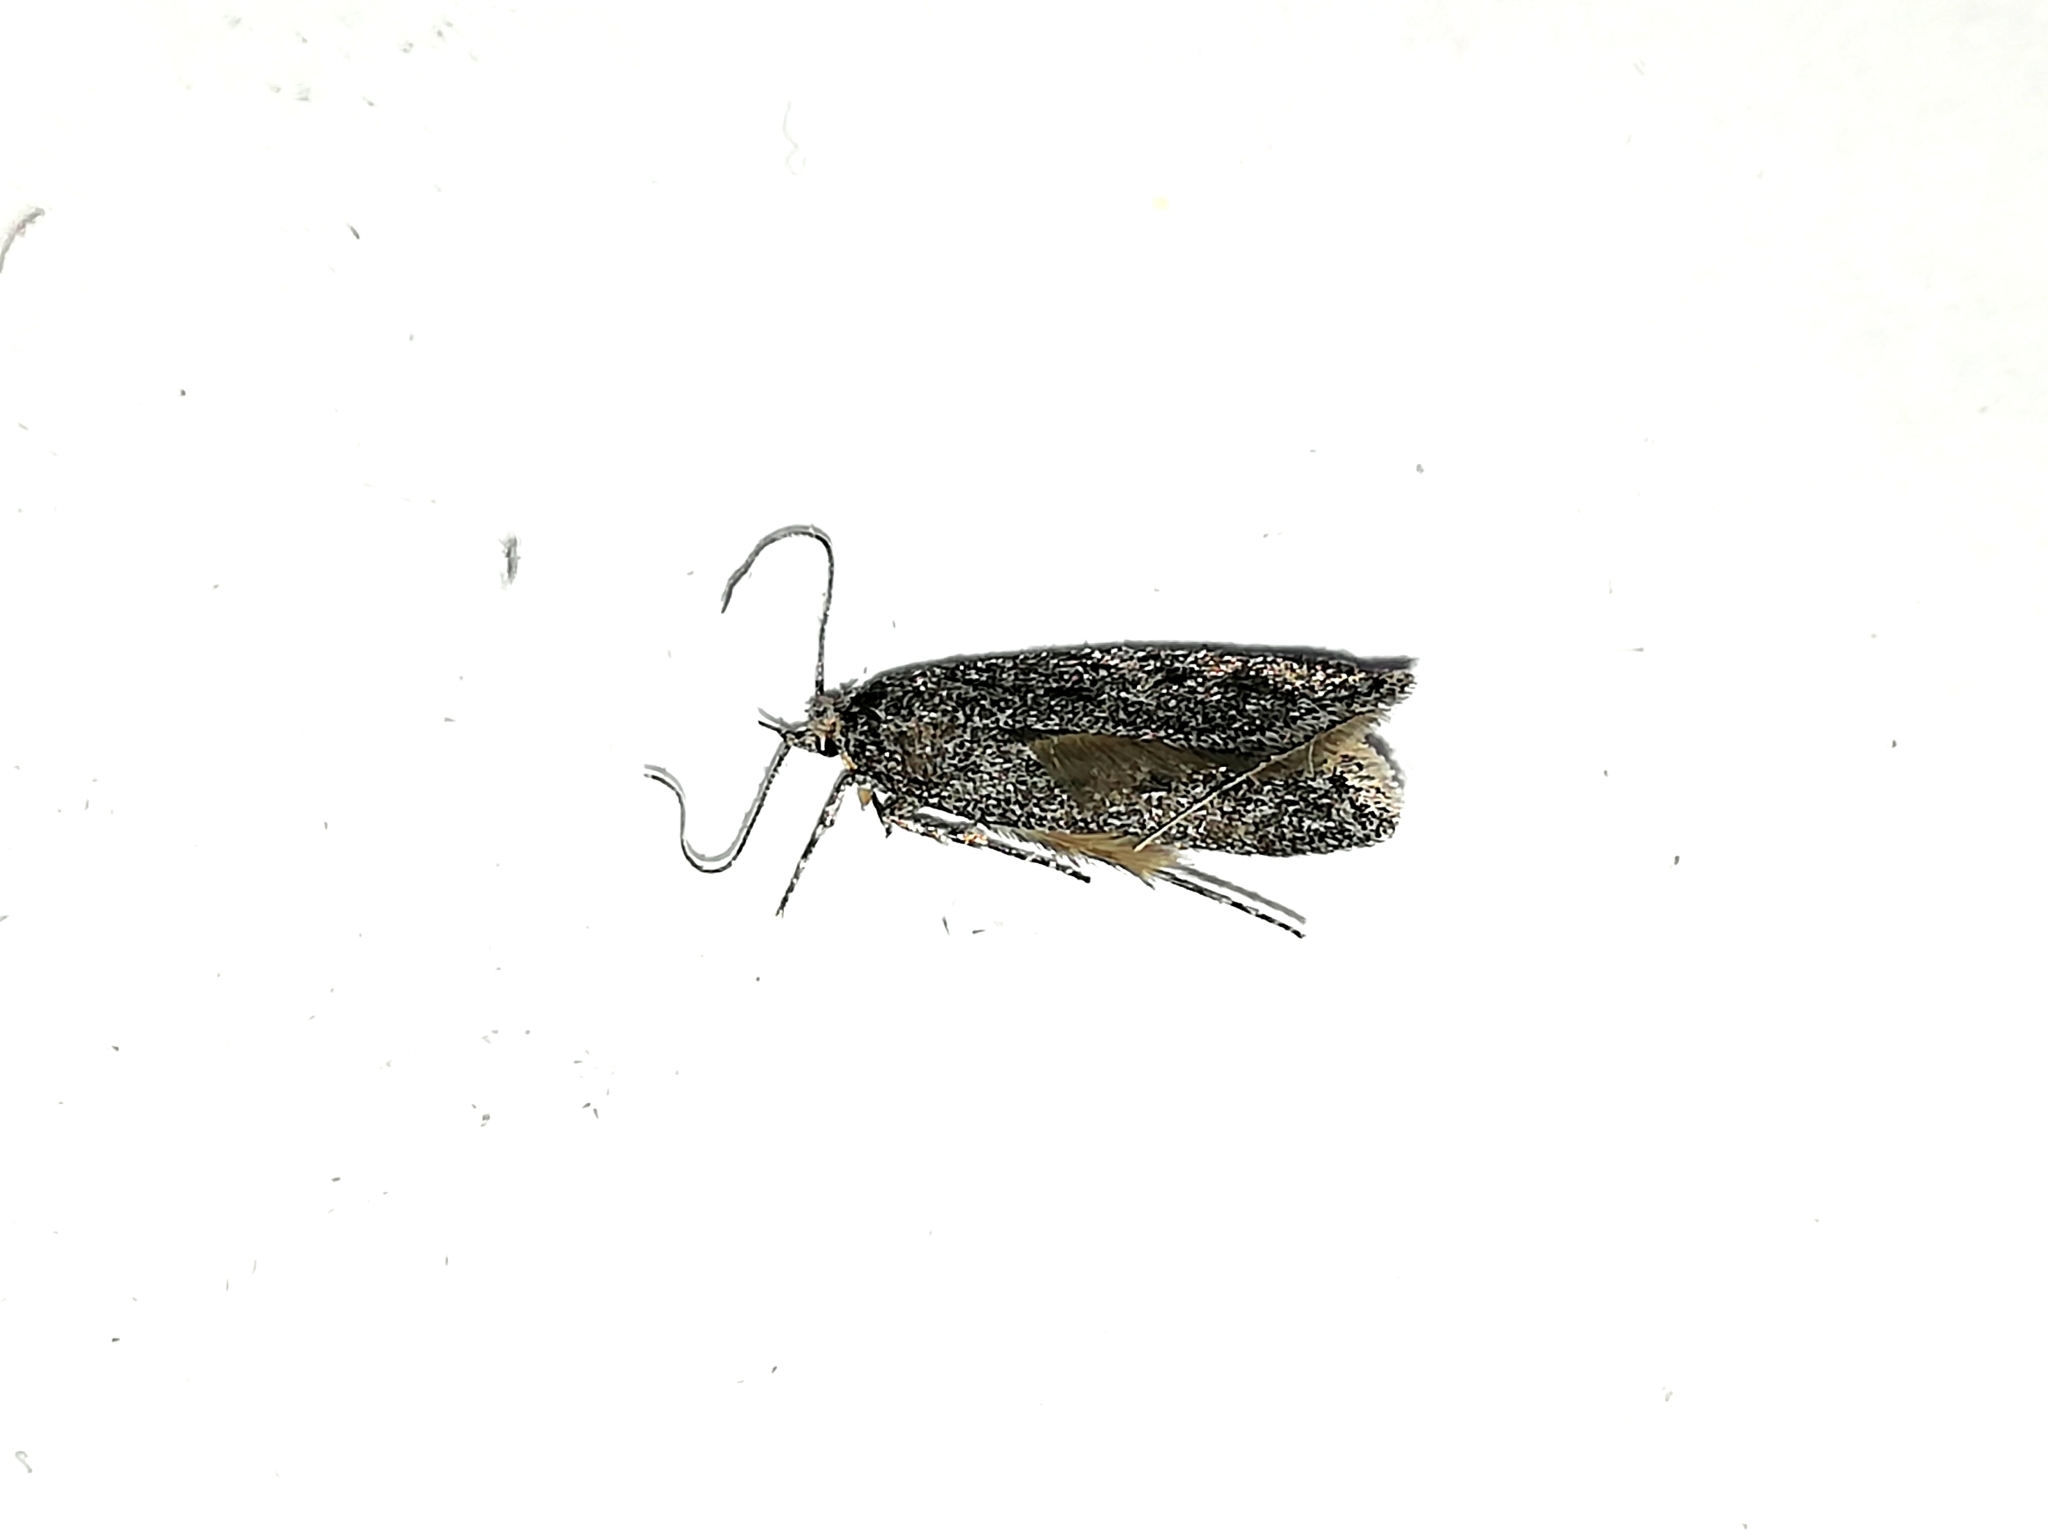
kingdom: Animalia
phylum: Arthropoda
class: Insecta
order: Lepidoptera
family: Depressariidae
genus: Exaeretia
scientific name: Exaeretia ciniflonella
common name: Scotch flat-body
